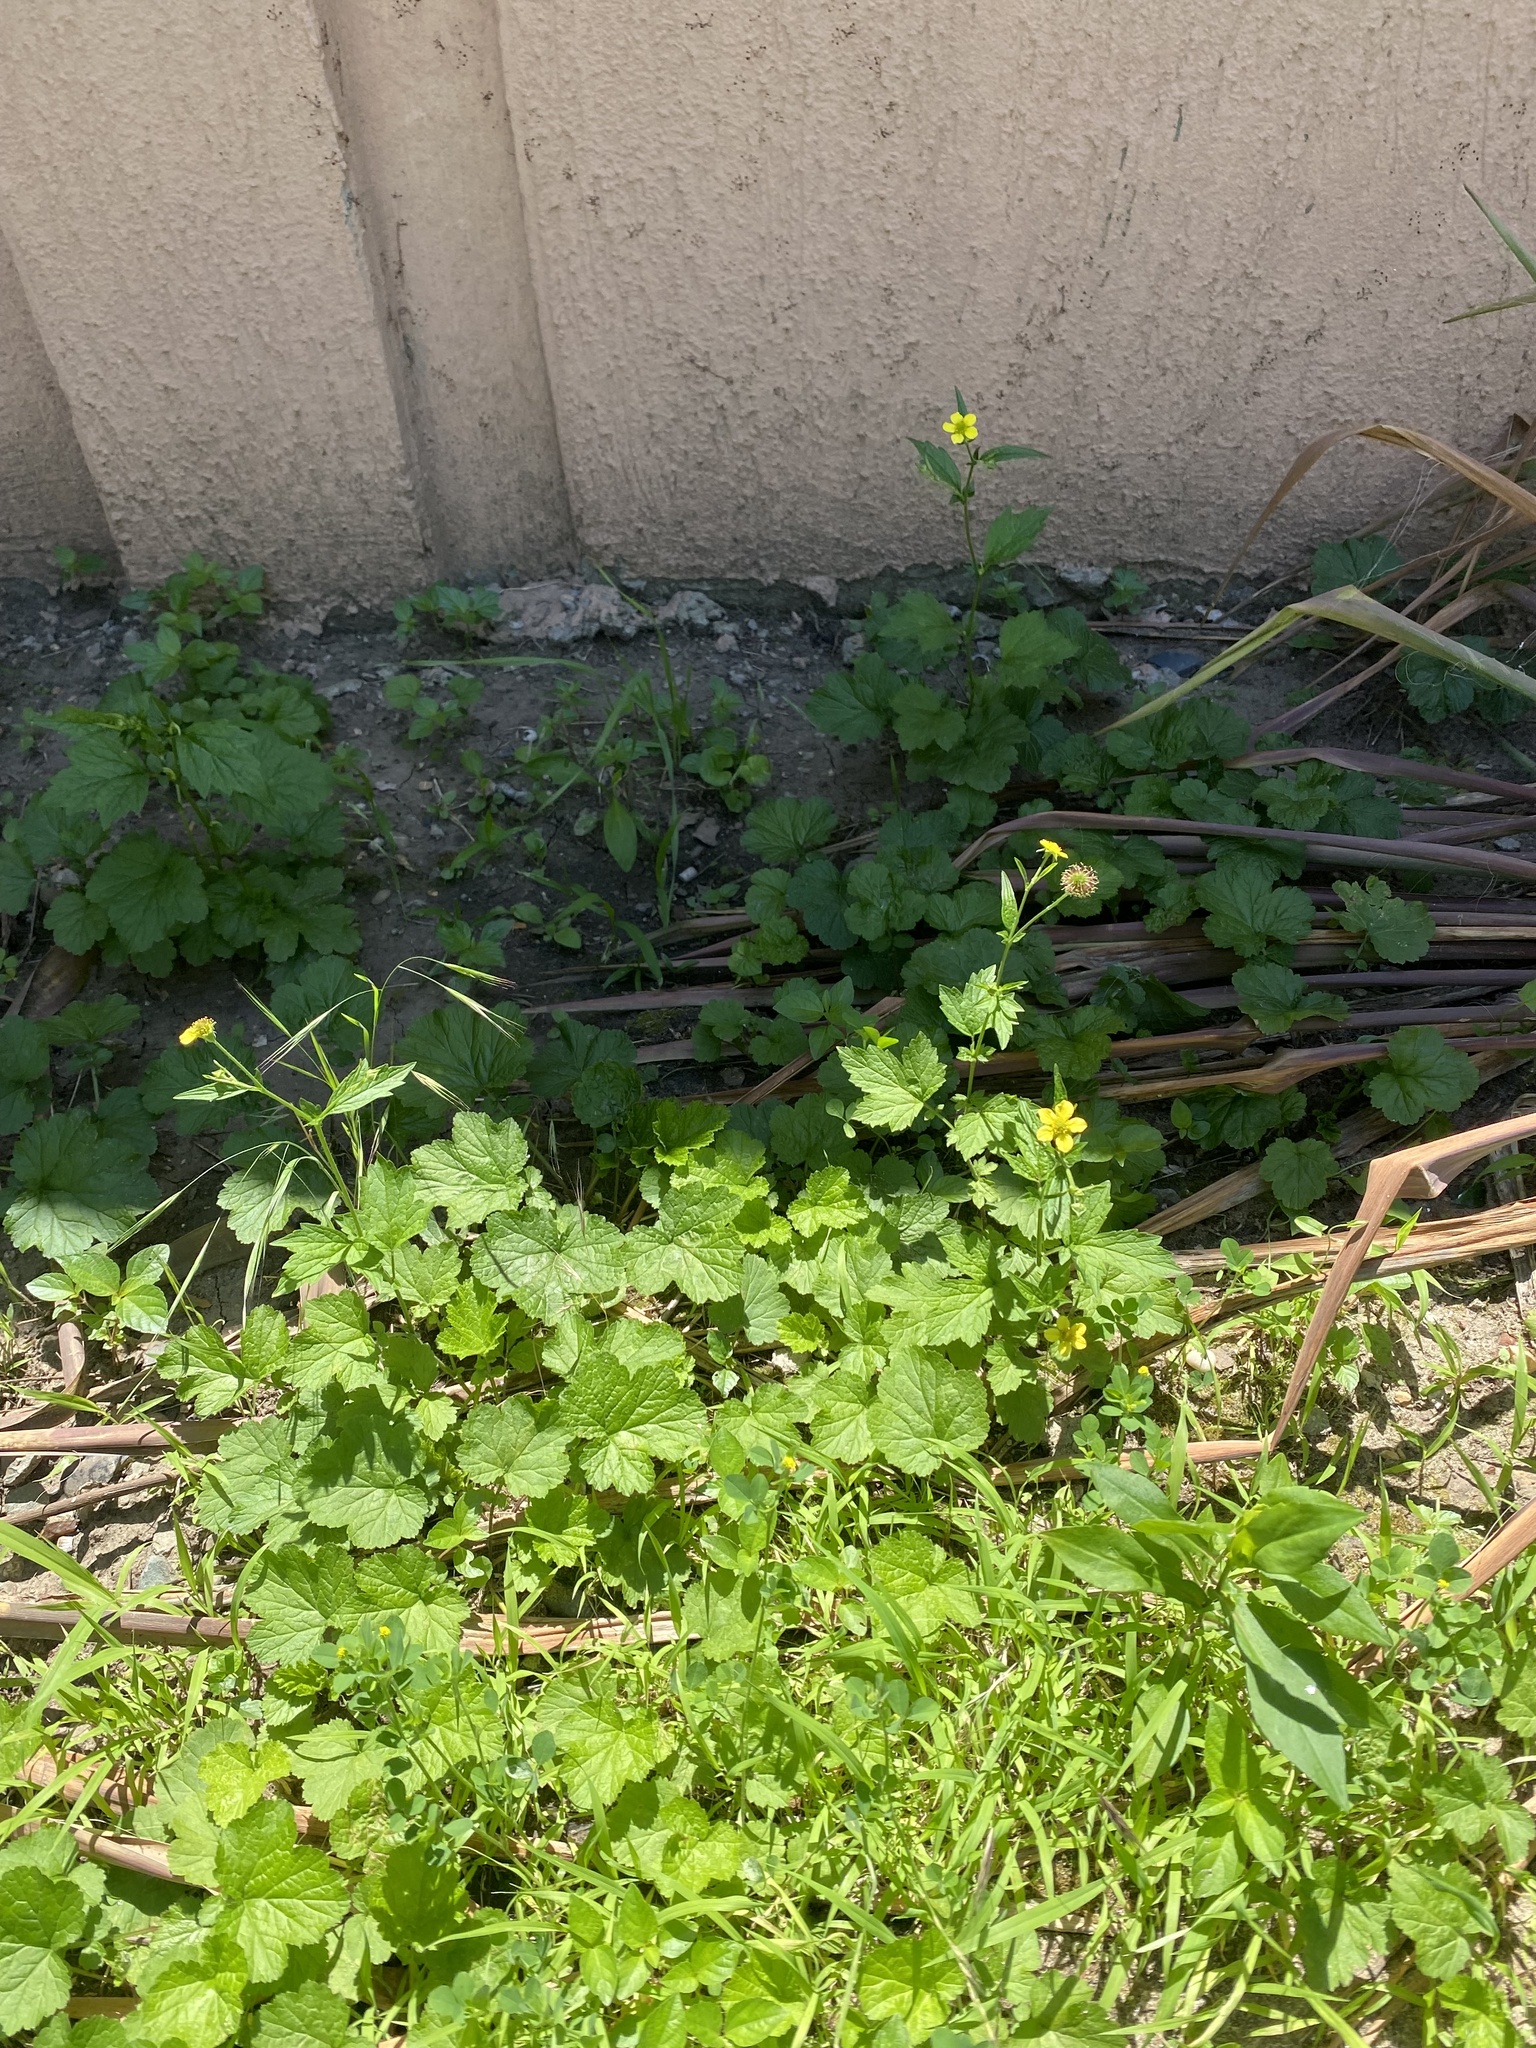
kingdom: Plantae
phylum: Tracheophyta
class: Magnoliopsida
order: Rosales
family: Rosaceae
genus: Geum
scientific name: Geum urbanum
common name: Wood avens
